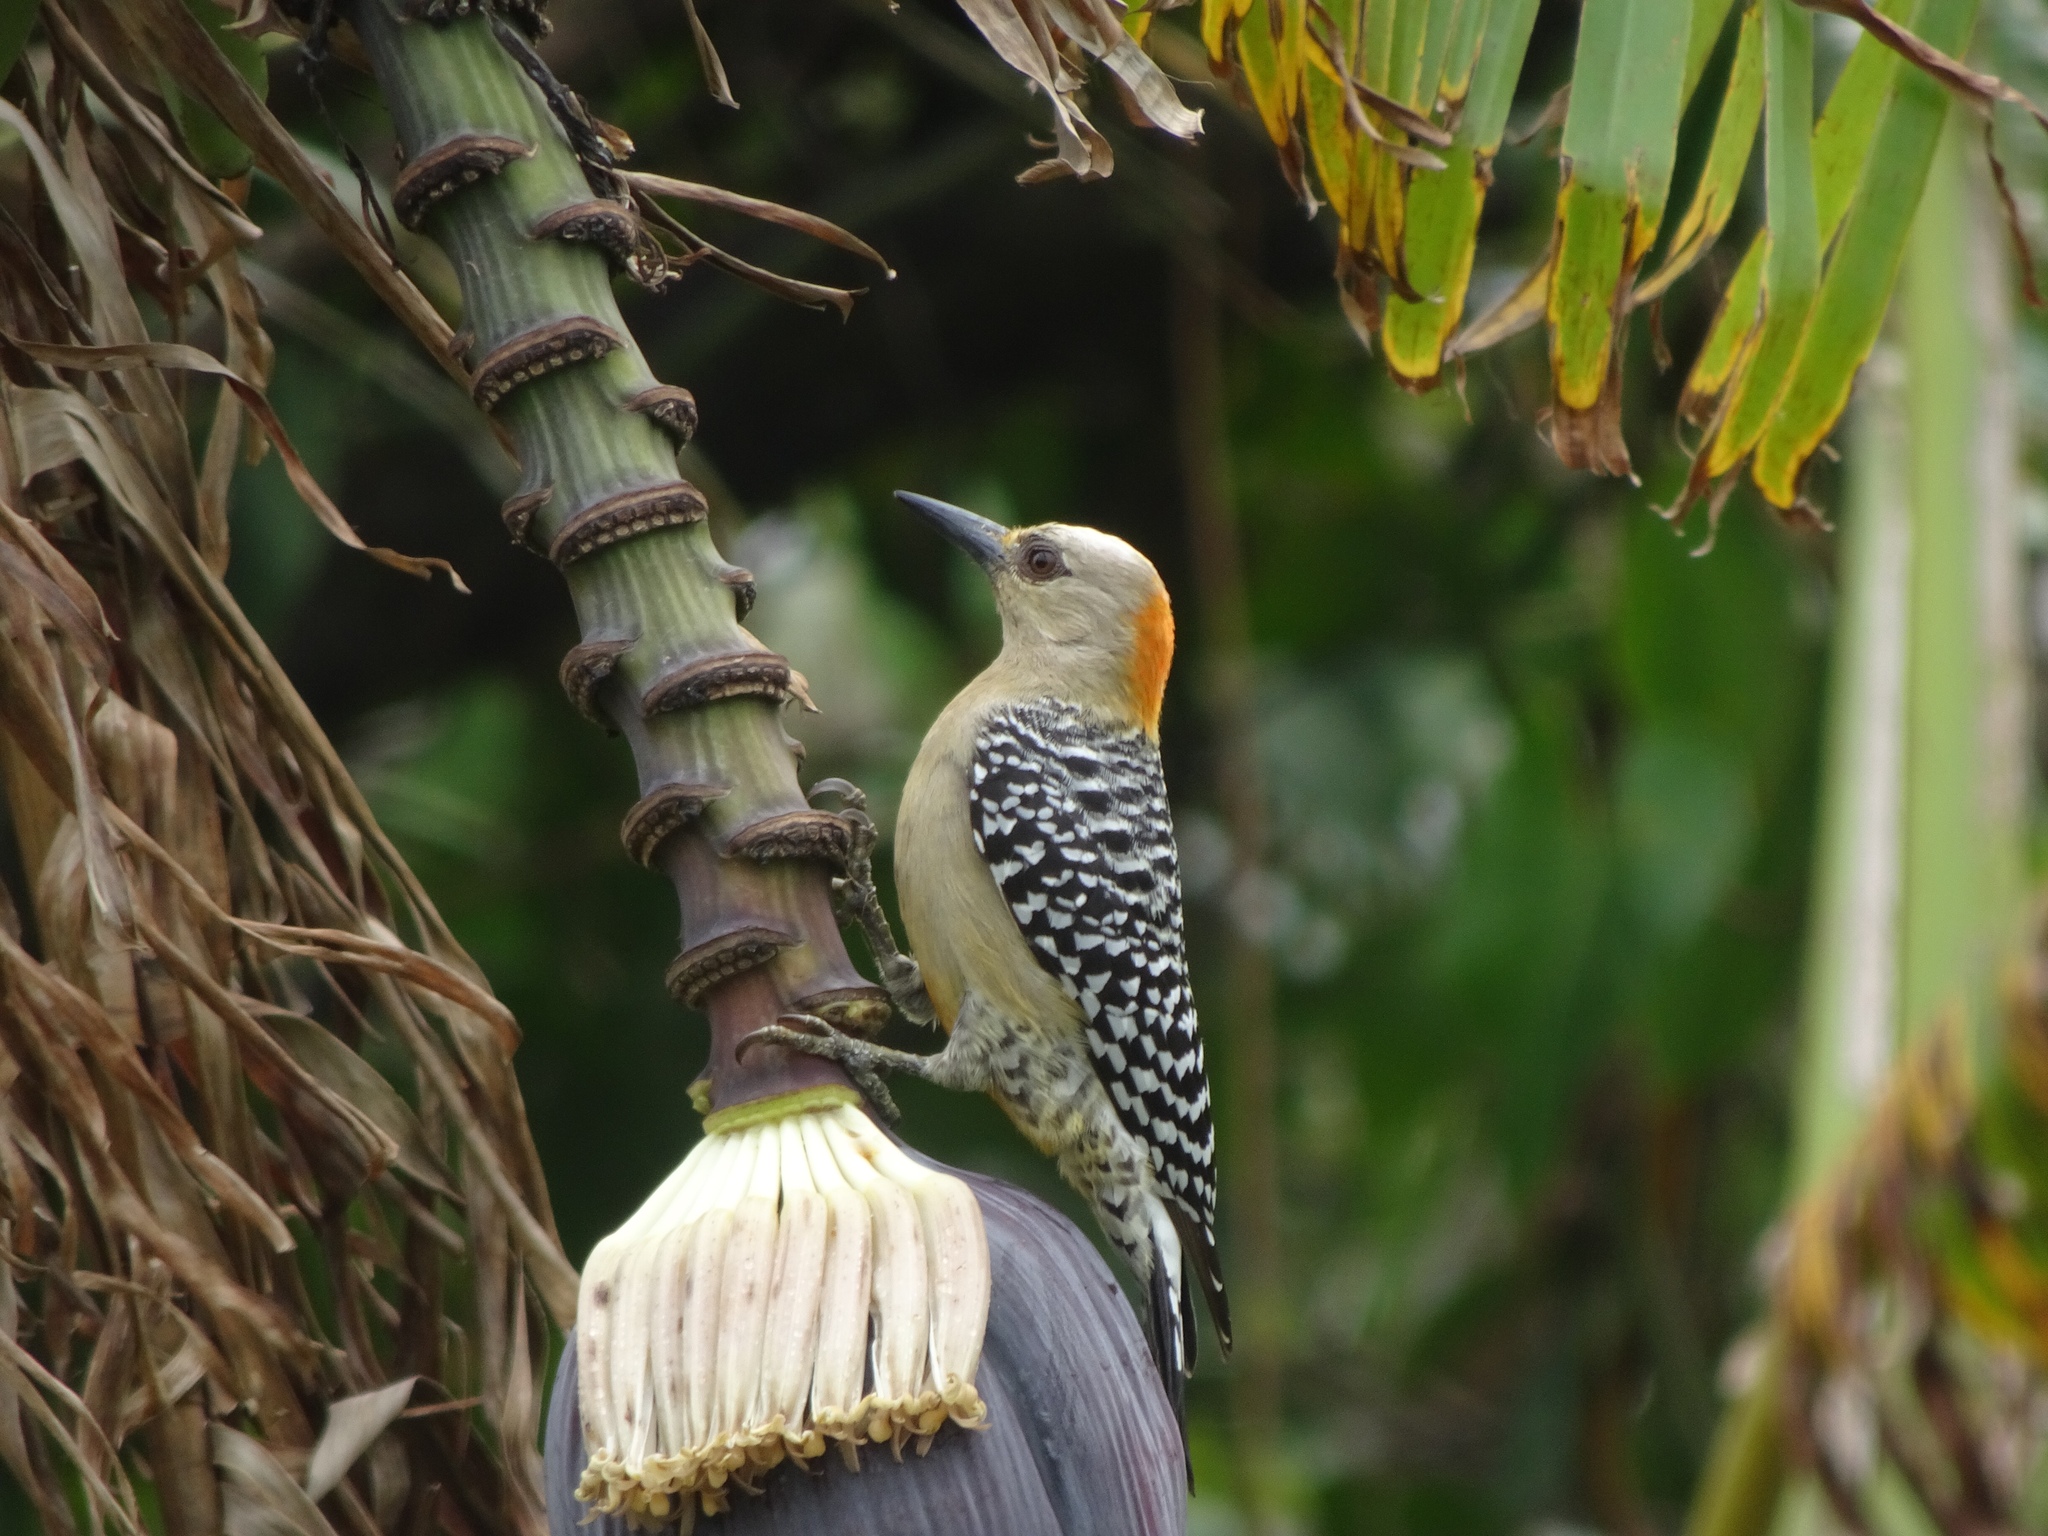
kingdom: Animalia
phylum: Chordata
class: Aves
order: Piciformes
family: Picidae
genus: Melanerpes
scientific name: Melanerpes rubricapillus
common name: Red-crowned woodpecker
